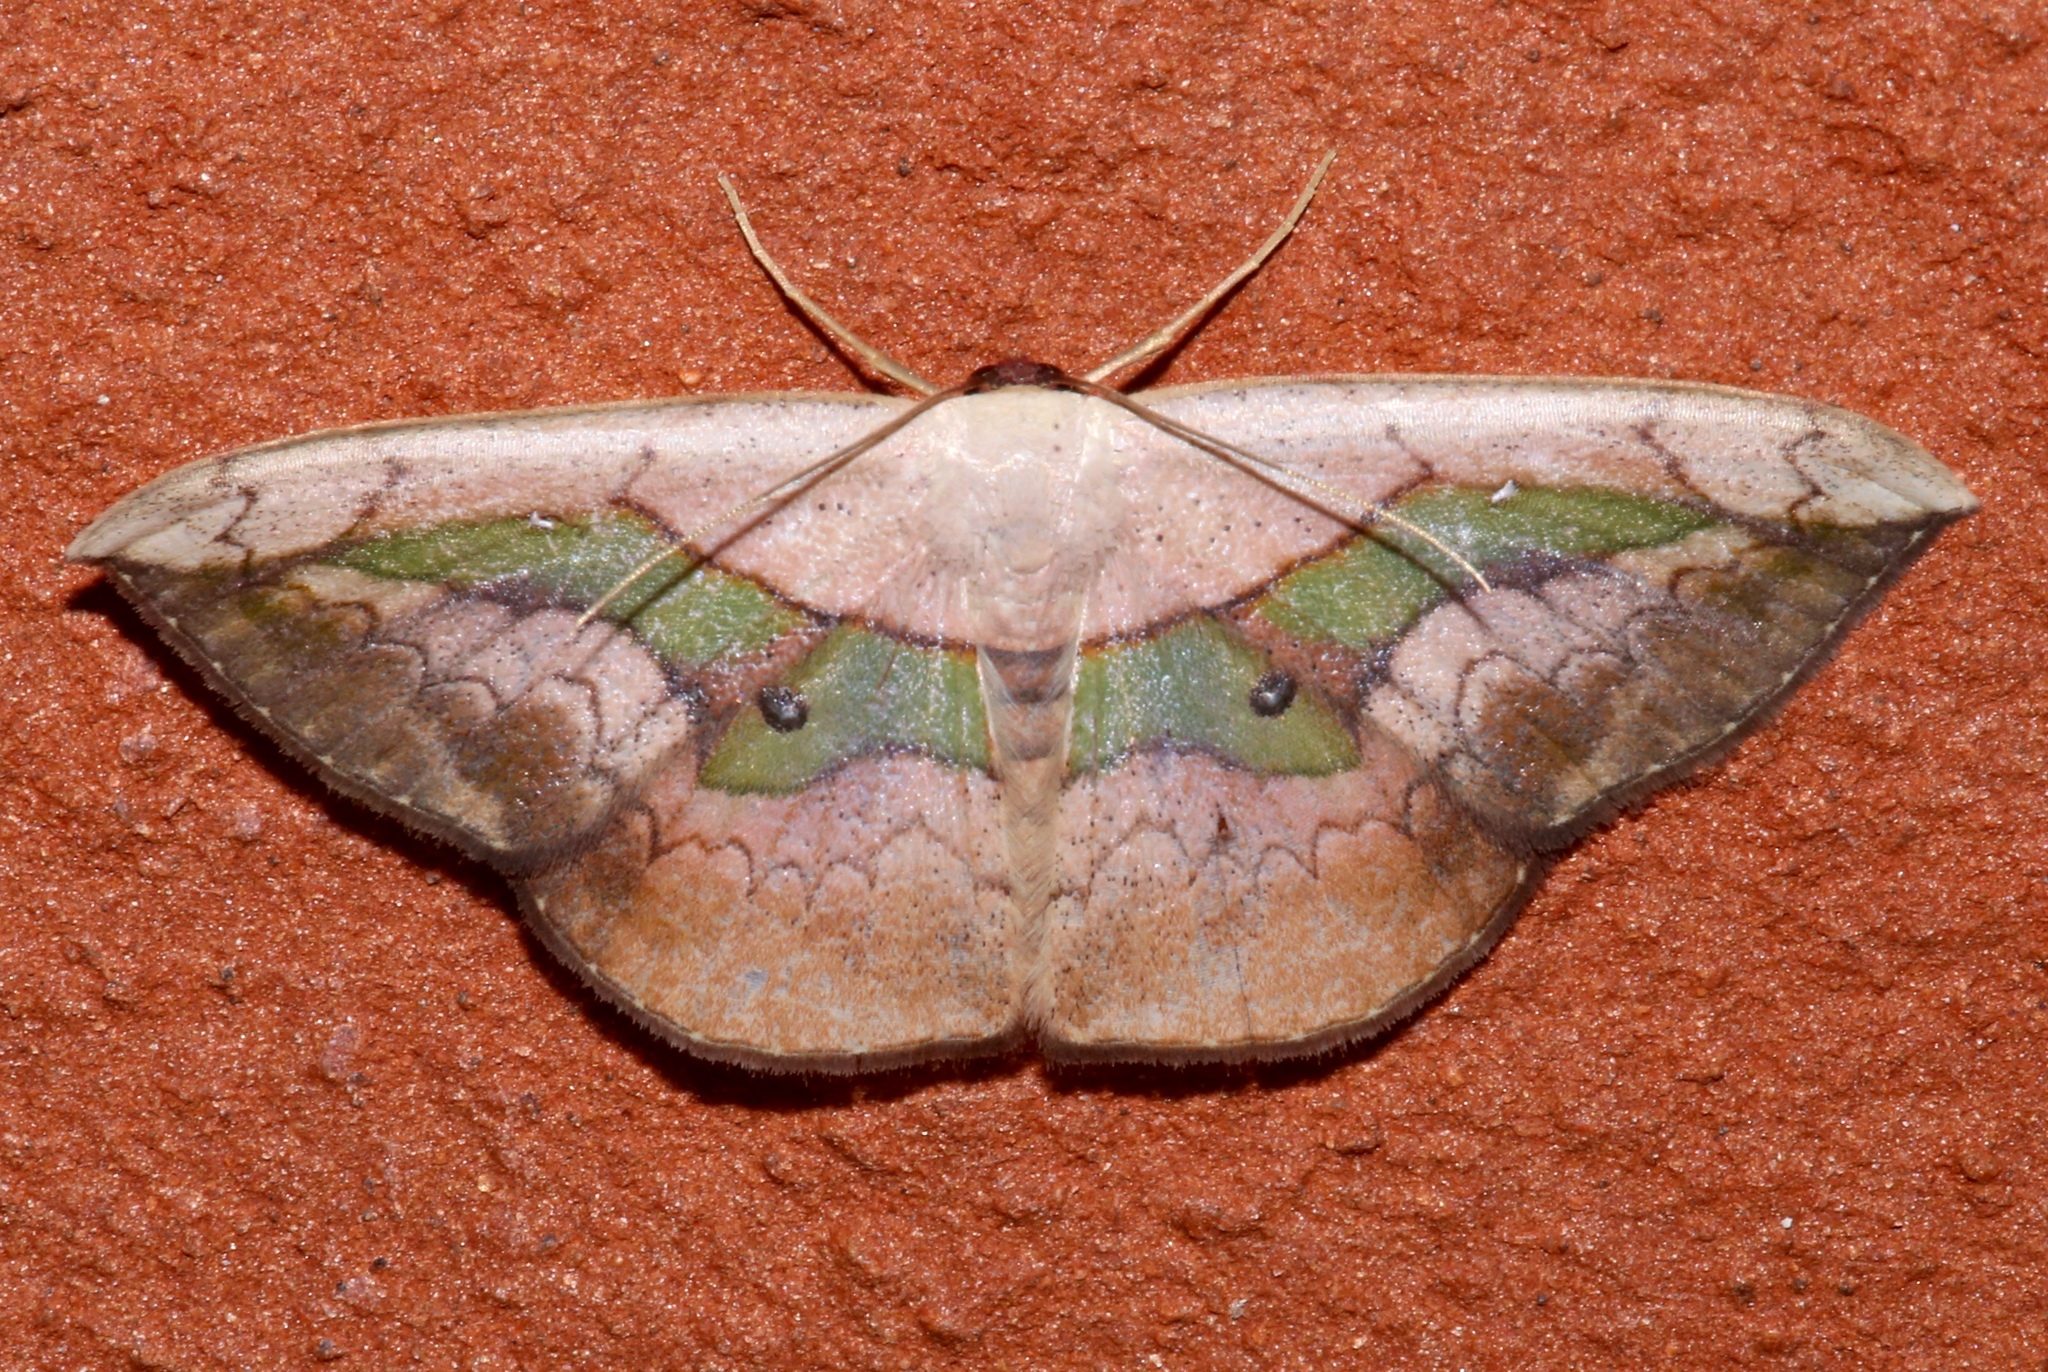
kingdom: Animalia
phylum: Arthropoda
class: Insecta
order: Lepidoptera
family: Geometridae
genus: Semaeopus
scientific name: Semaeopus nisa
